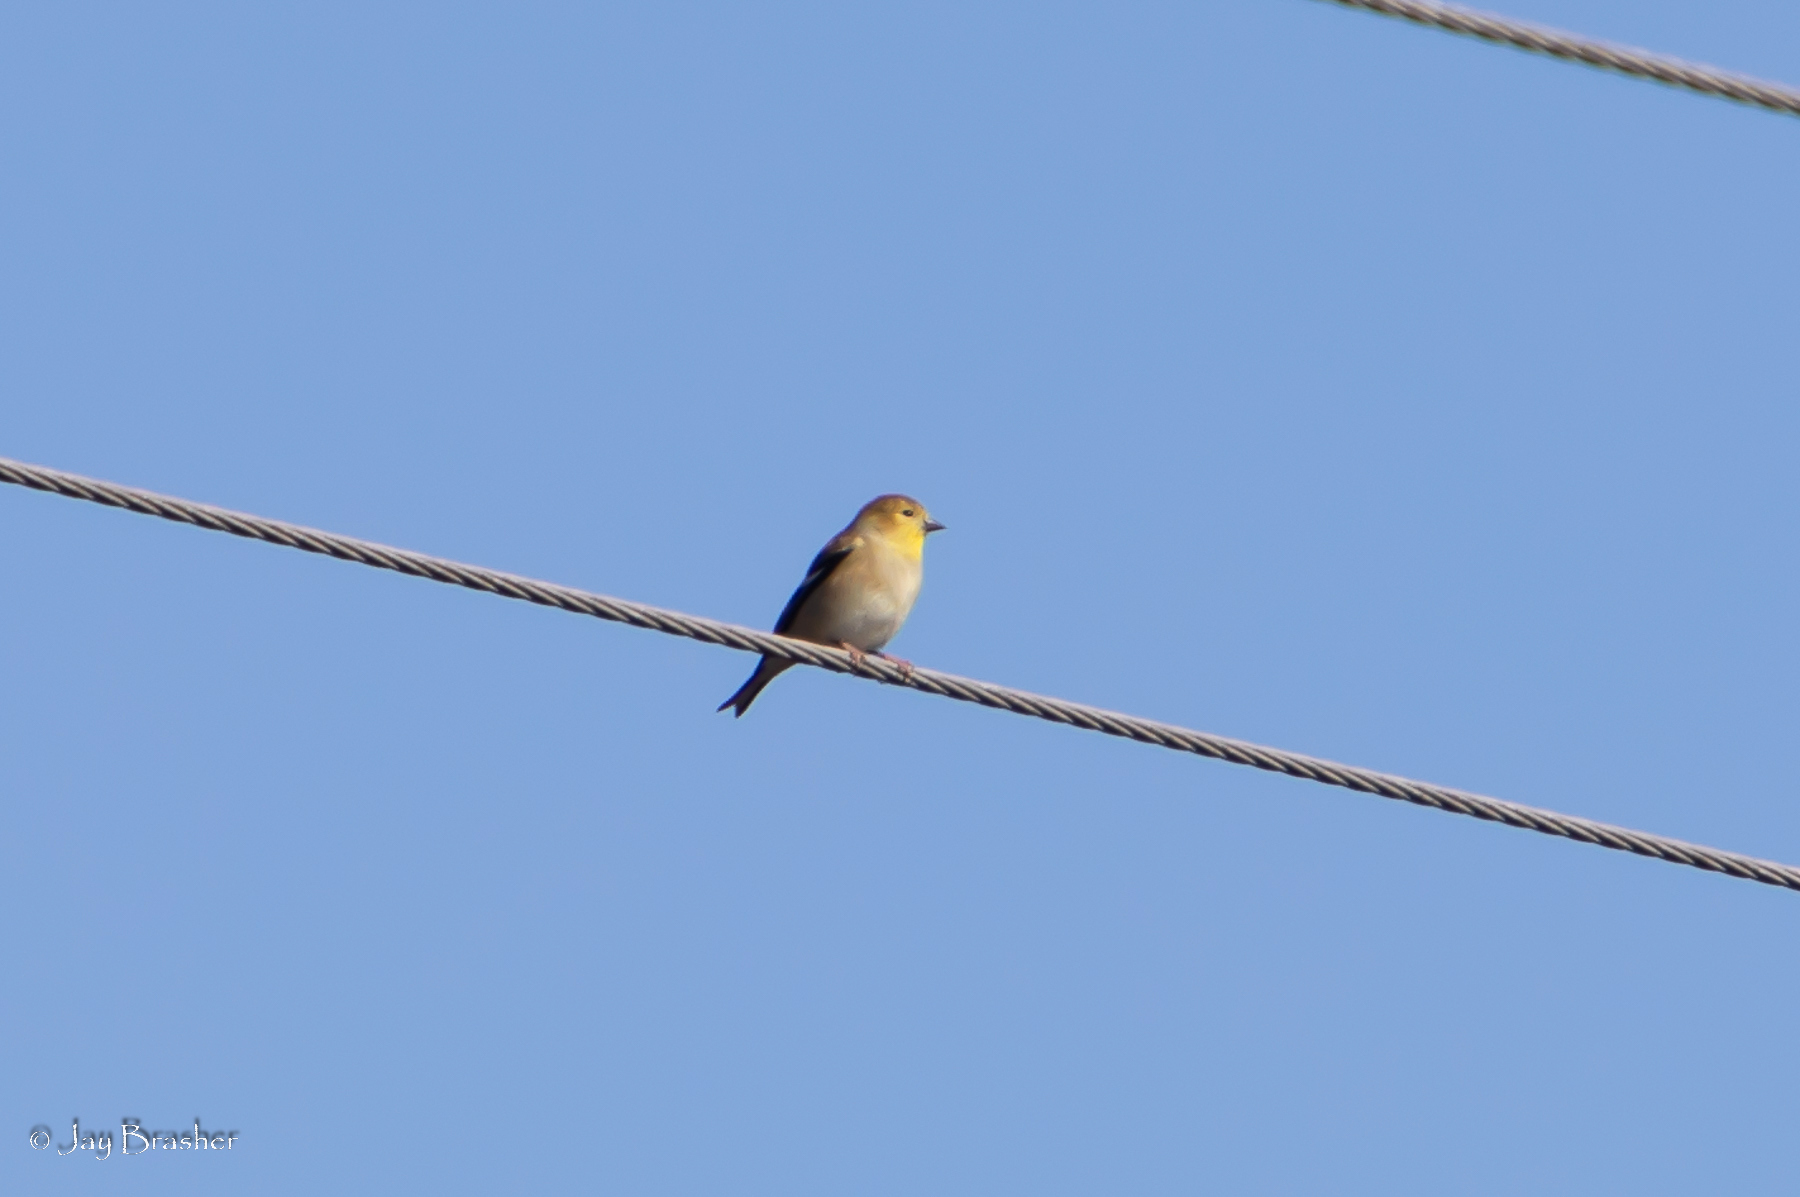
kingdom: Animalia
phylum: Chordata
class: Aves
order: Passeriformes
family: Fringillidae
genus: Spinus
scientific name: Spinus tristis
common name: American goldfinch
